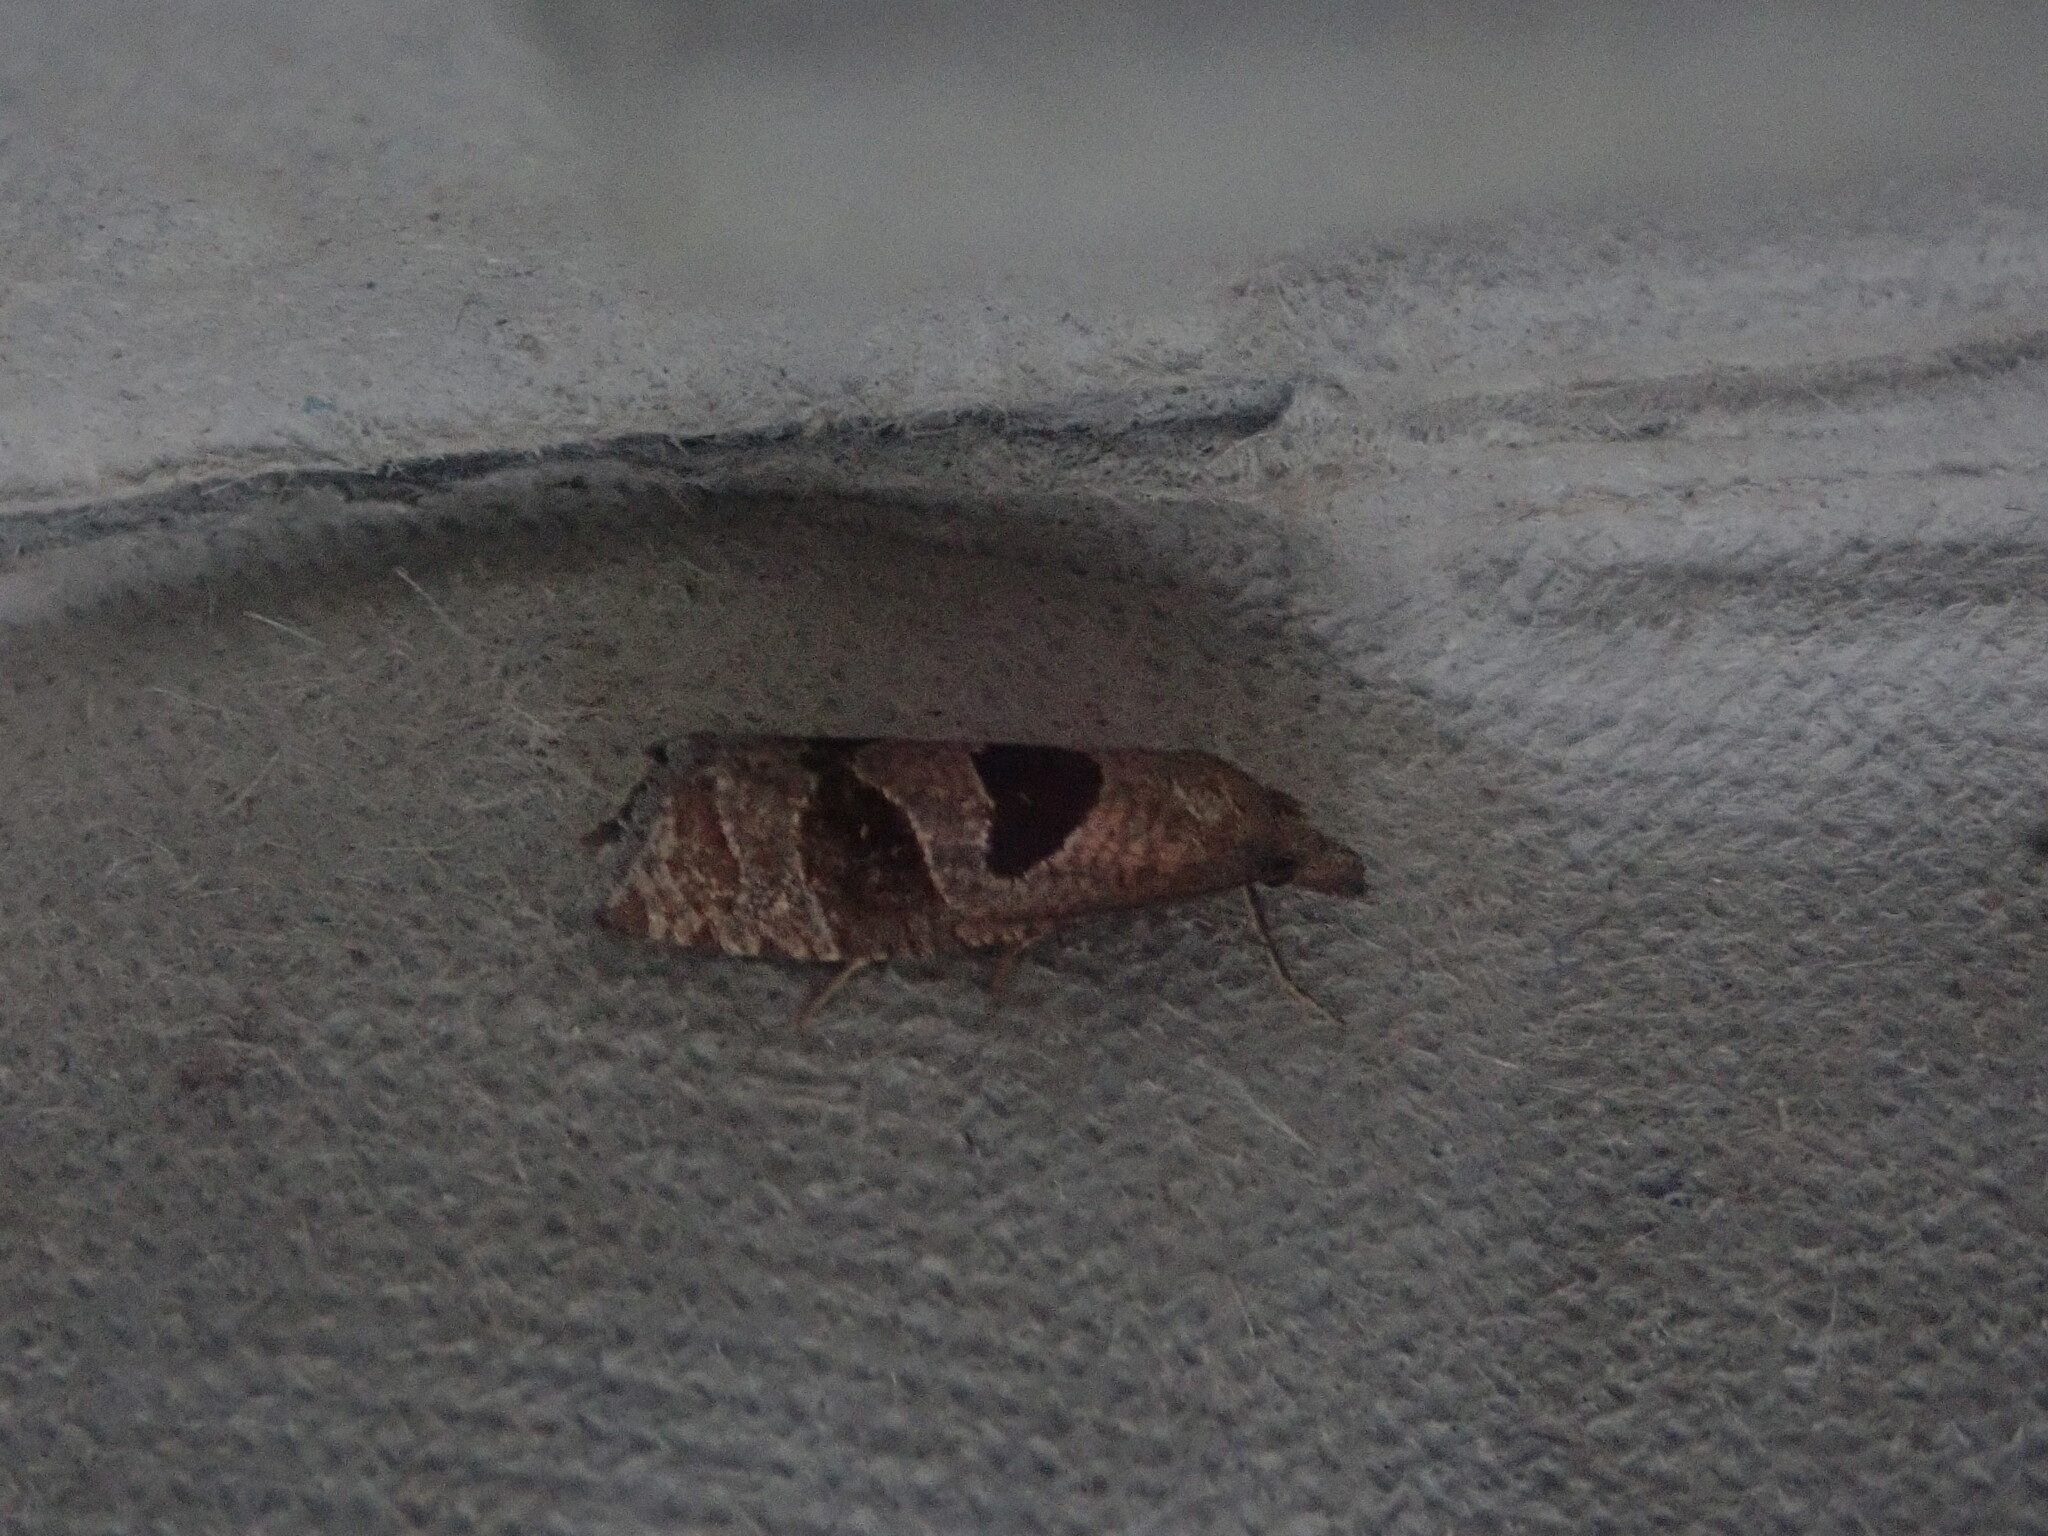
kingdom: Animalia
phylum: Arthropoda
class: Insecta
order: Lepidoptera
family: Tortricidae
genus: Pelochrista
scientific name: Pelochrista dorsisignatana
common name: Triangle-backed pelochrista moth
